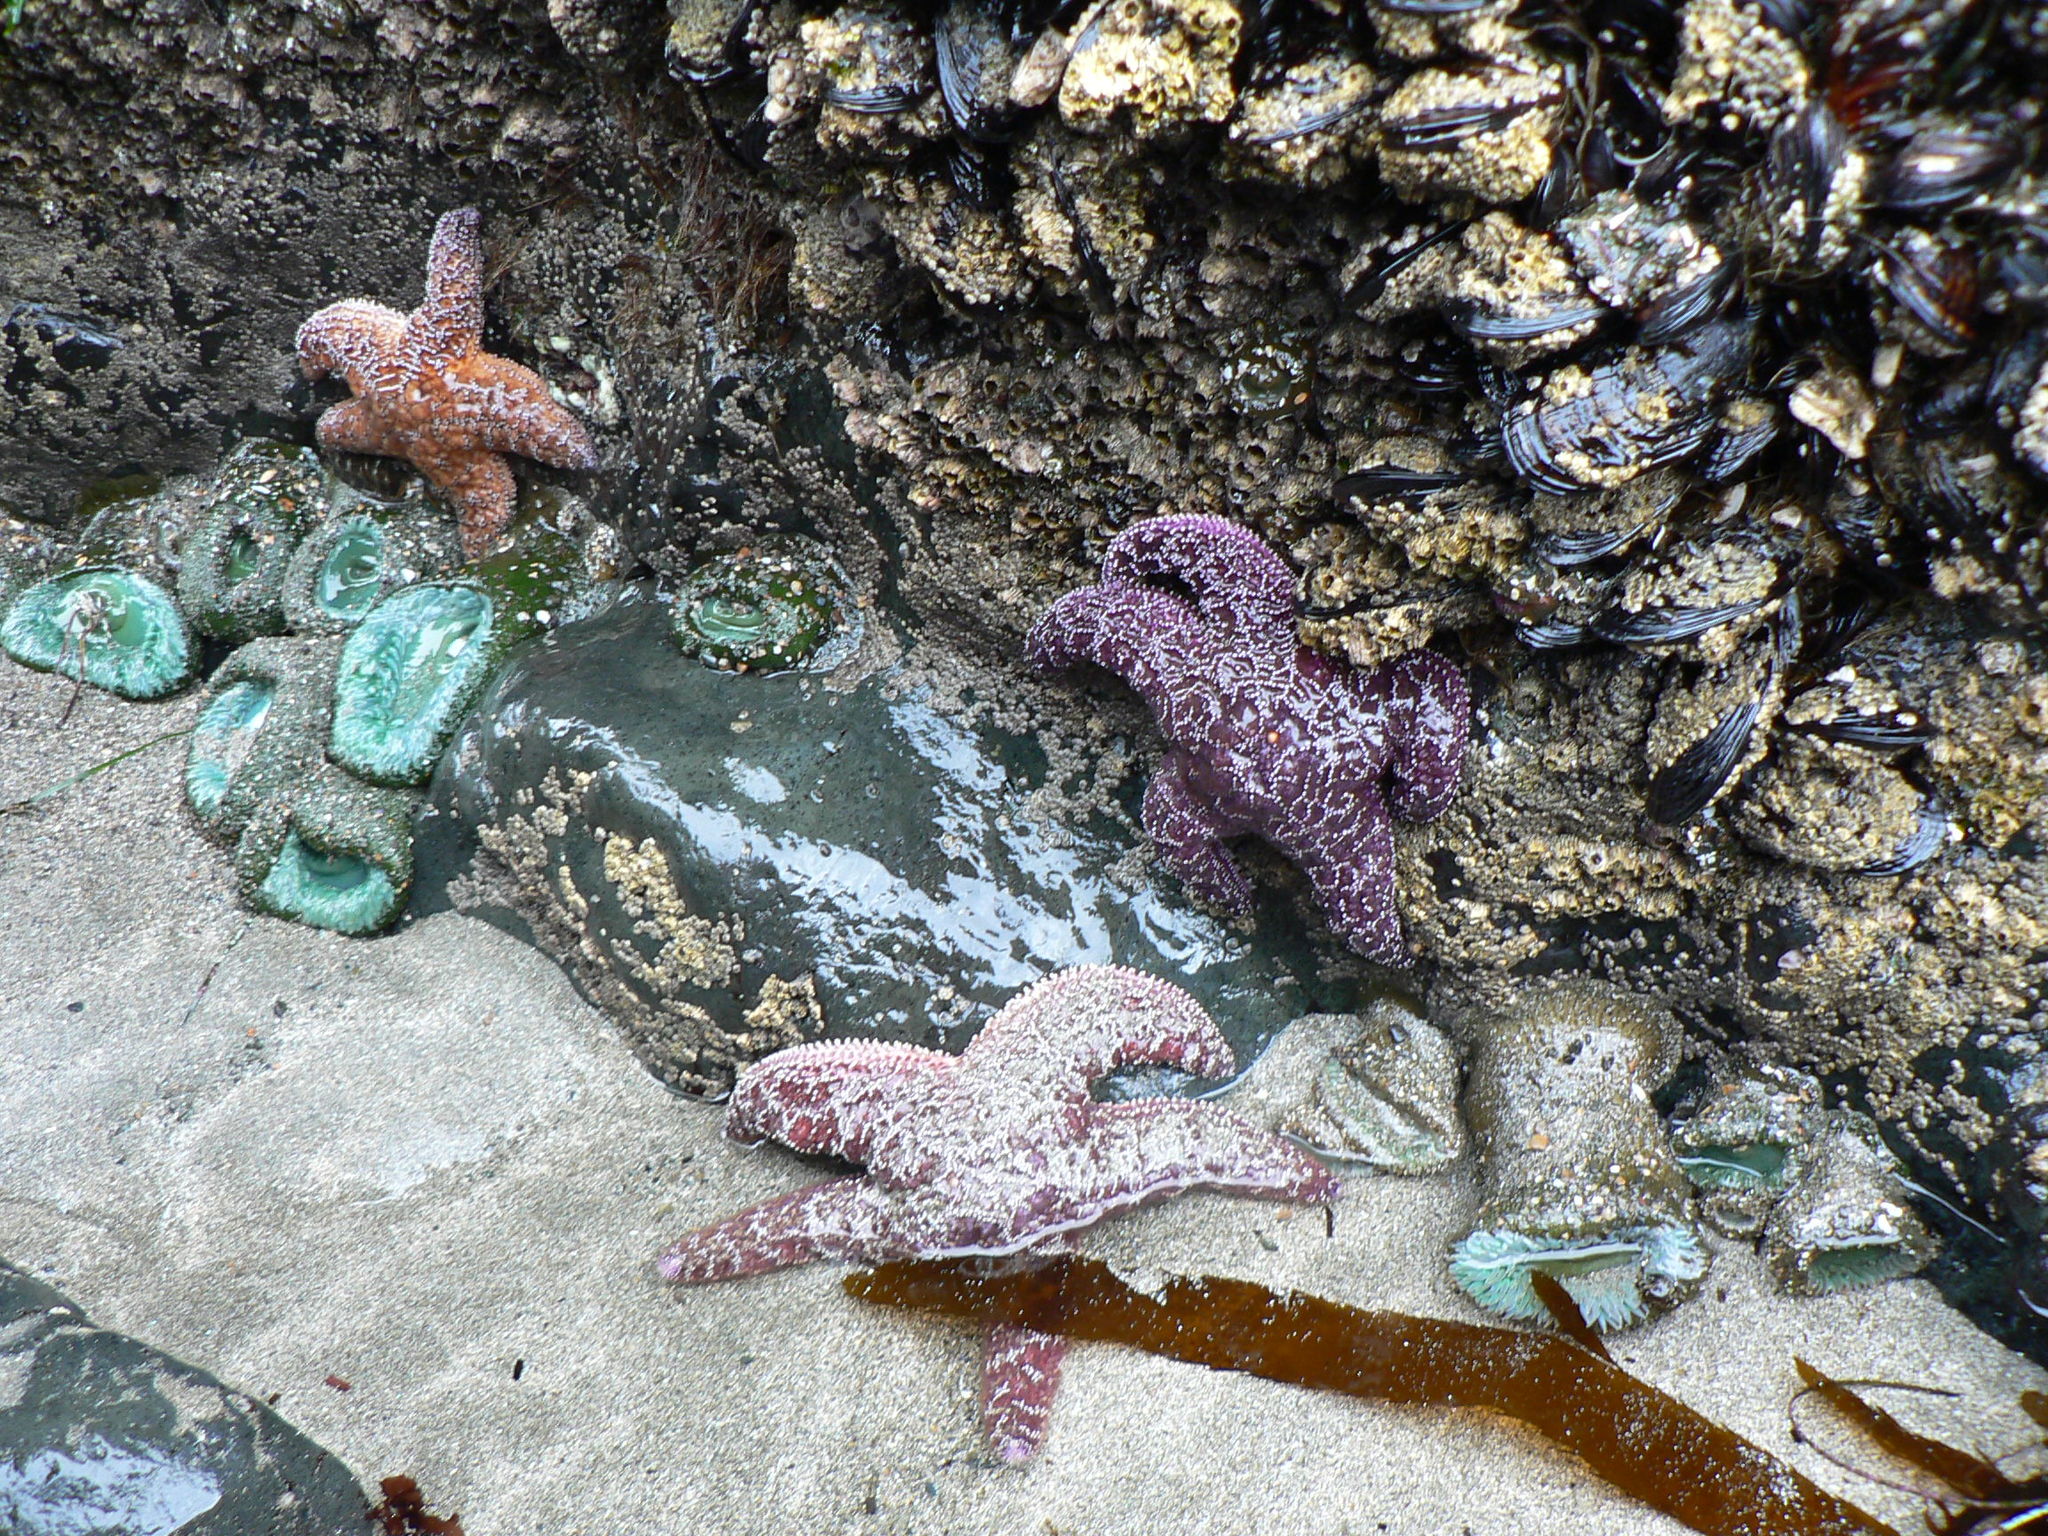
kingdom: Animalia
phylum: Echinodermata
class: Asteroidea
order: Forcipulatida
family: Asteriidae
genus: Pisaster
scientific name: Pisaster ochraceus
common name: Ochre stars
